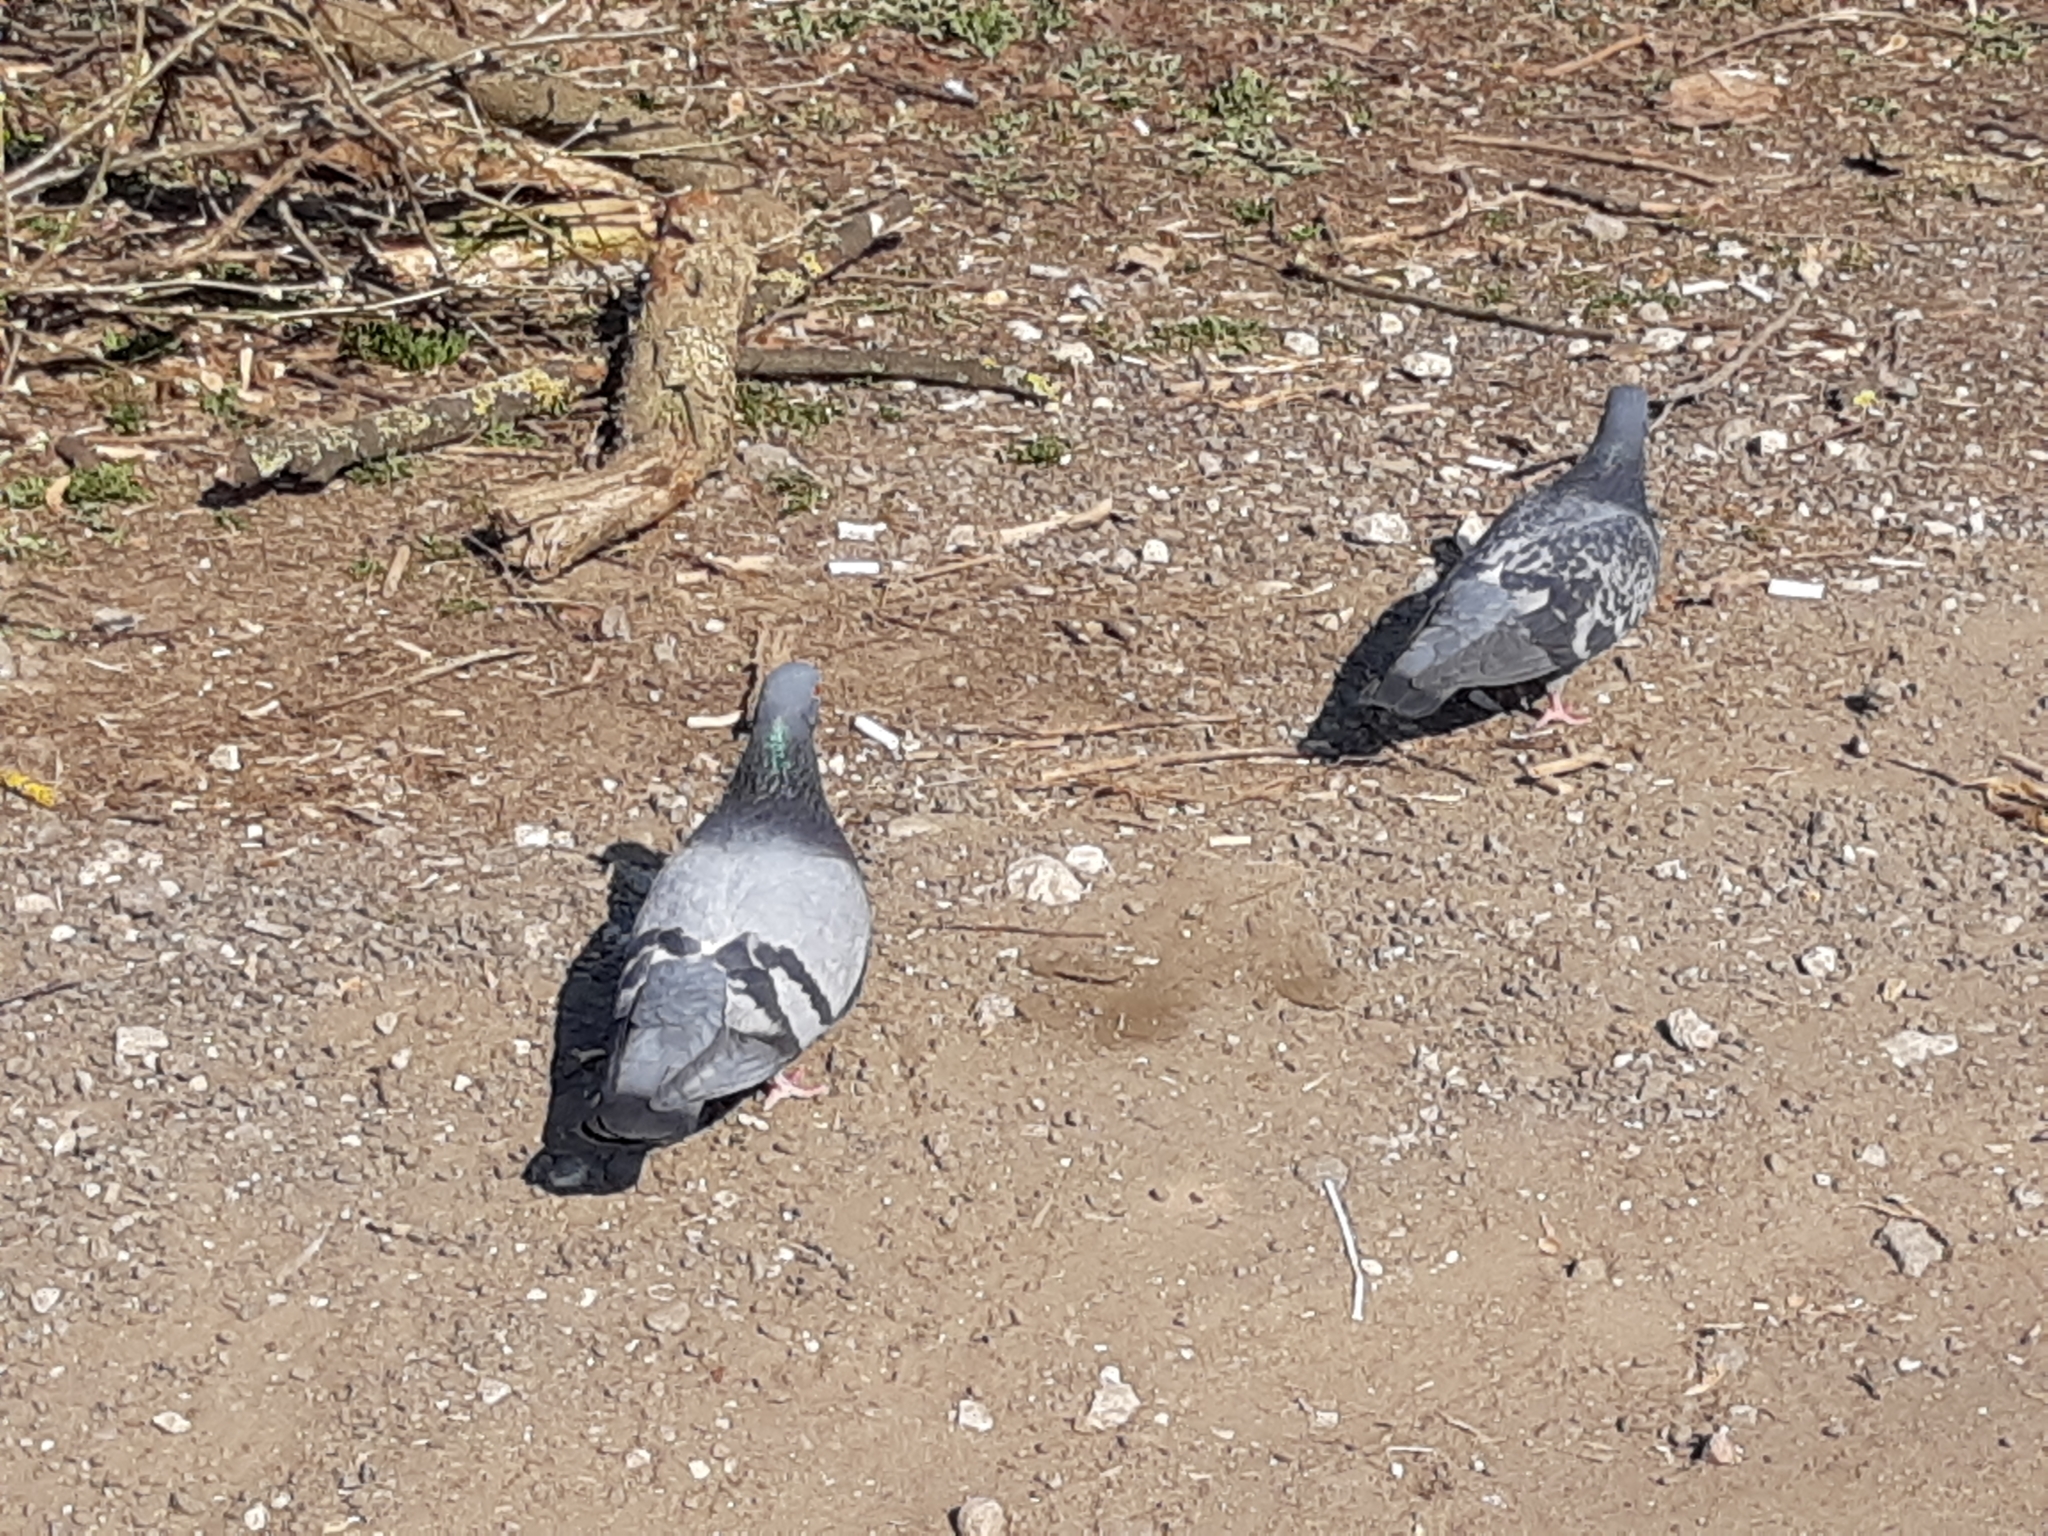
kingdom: Animalia
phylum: Chordata
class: Aves
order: Columbiformes
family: Columbidae
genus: Columba
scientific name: Columba livia
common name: Rock pigeon
